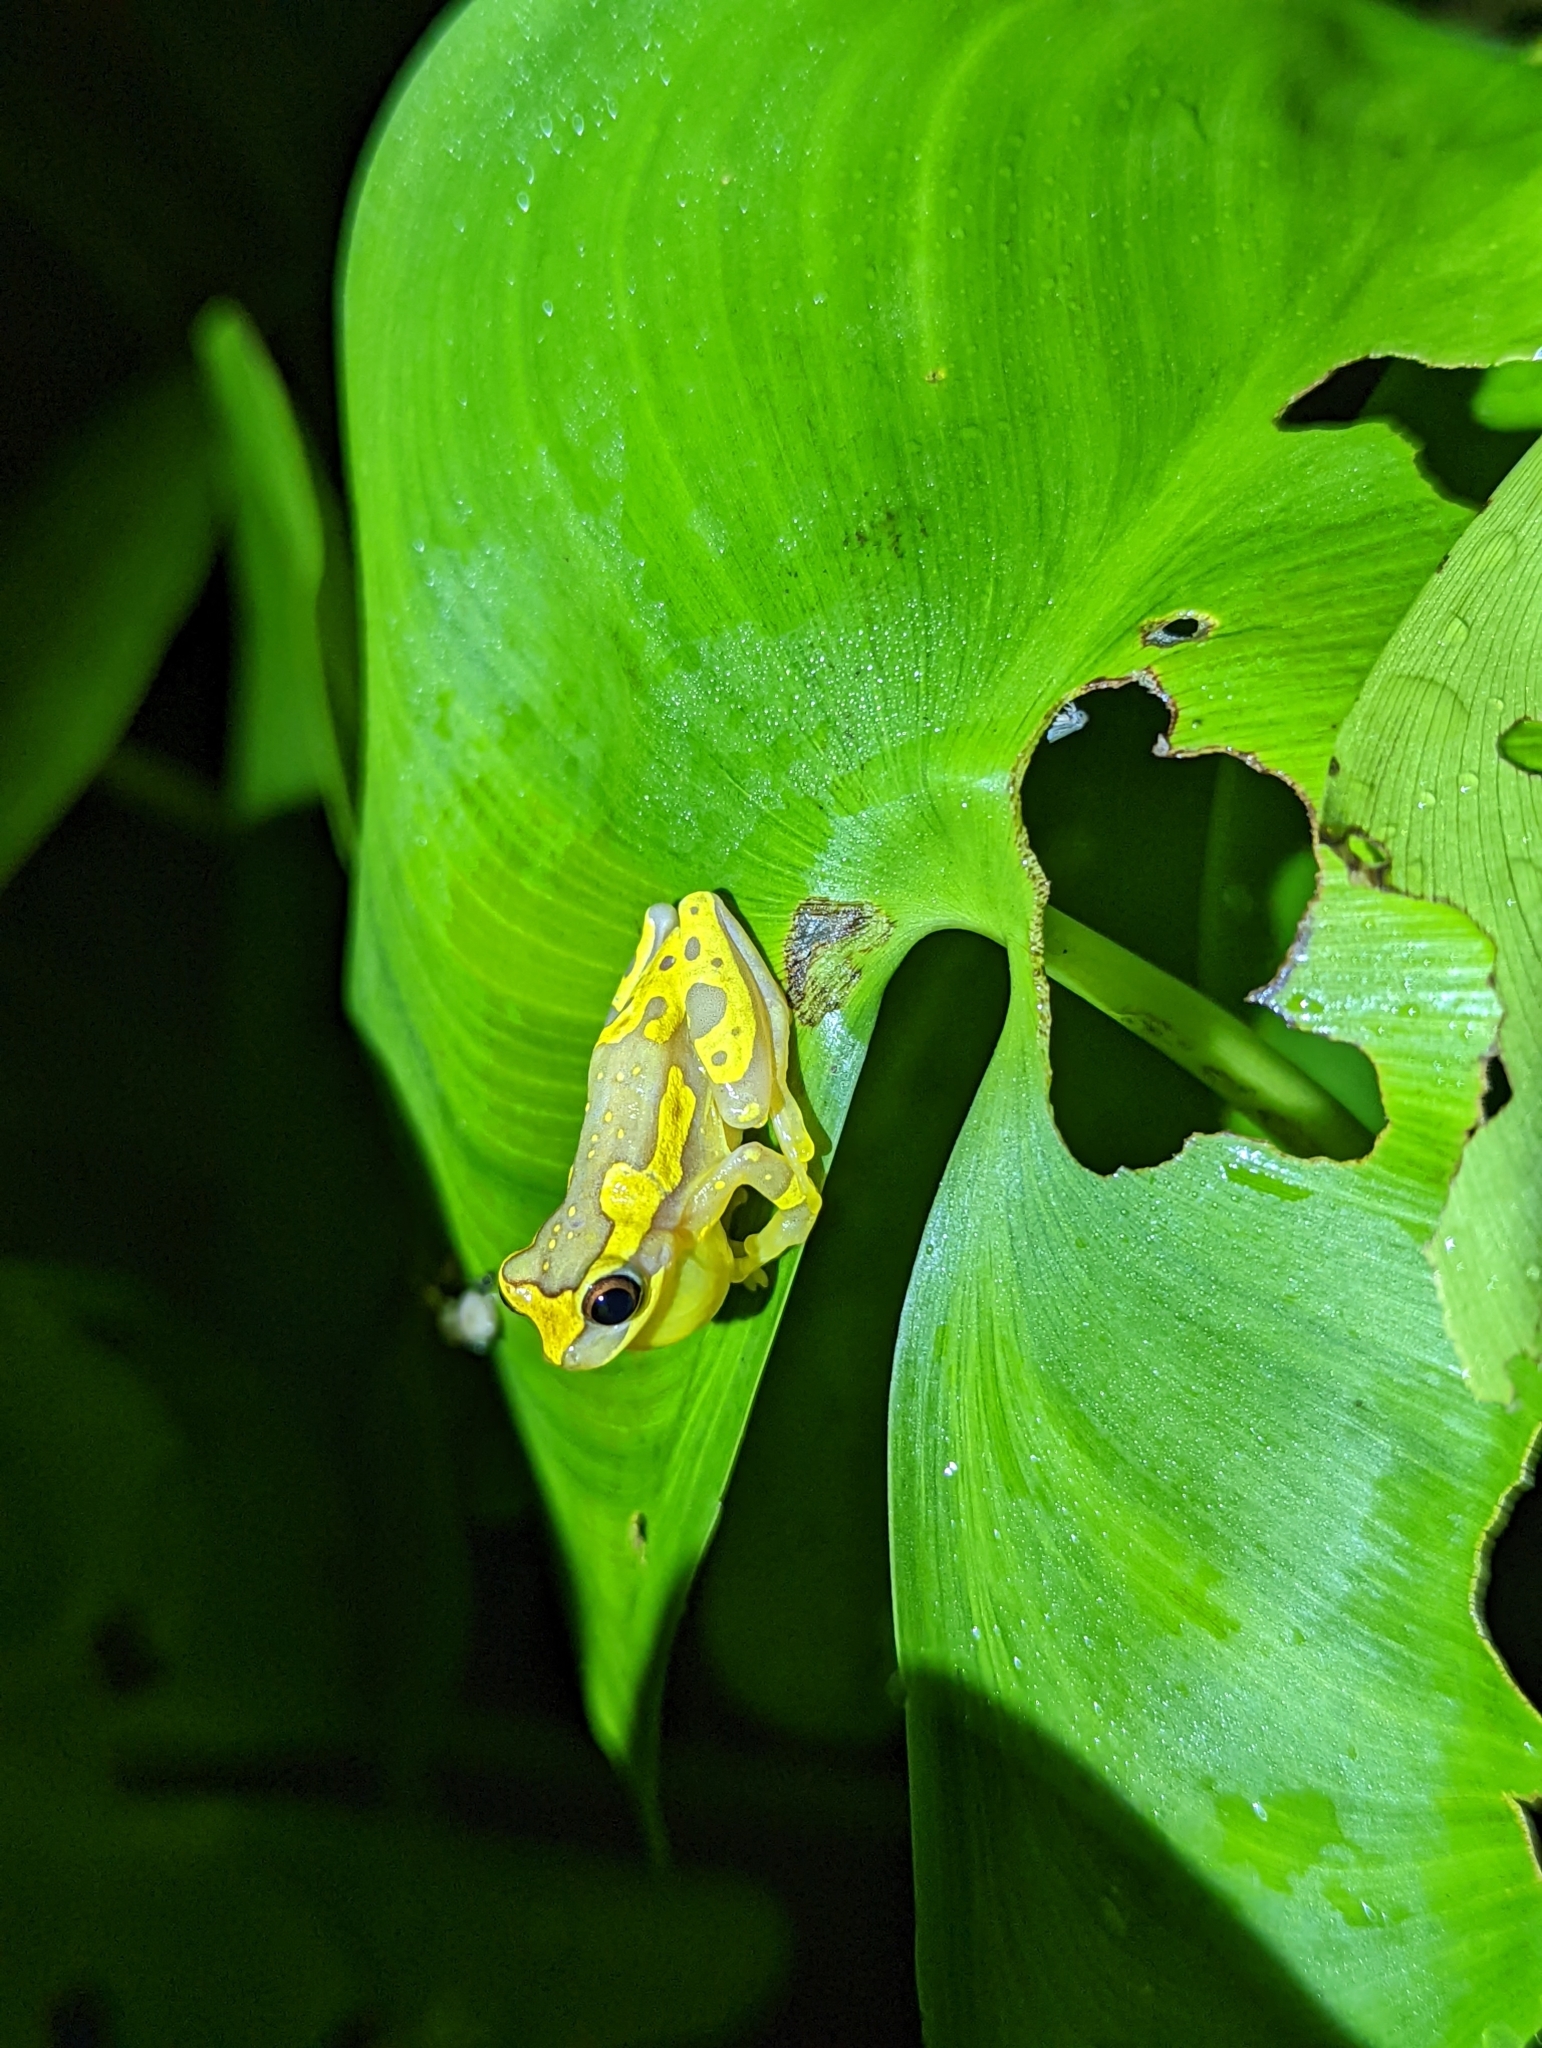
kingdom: Animalia
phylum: Chordata
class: Amphibia
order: Anura
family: Hylidae
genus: Dendropsophus
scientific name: Dendropsophus ebraccatus
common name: Hourglass treefrog
